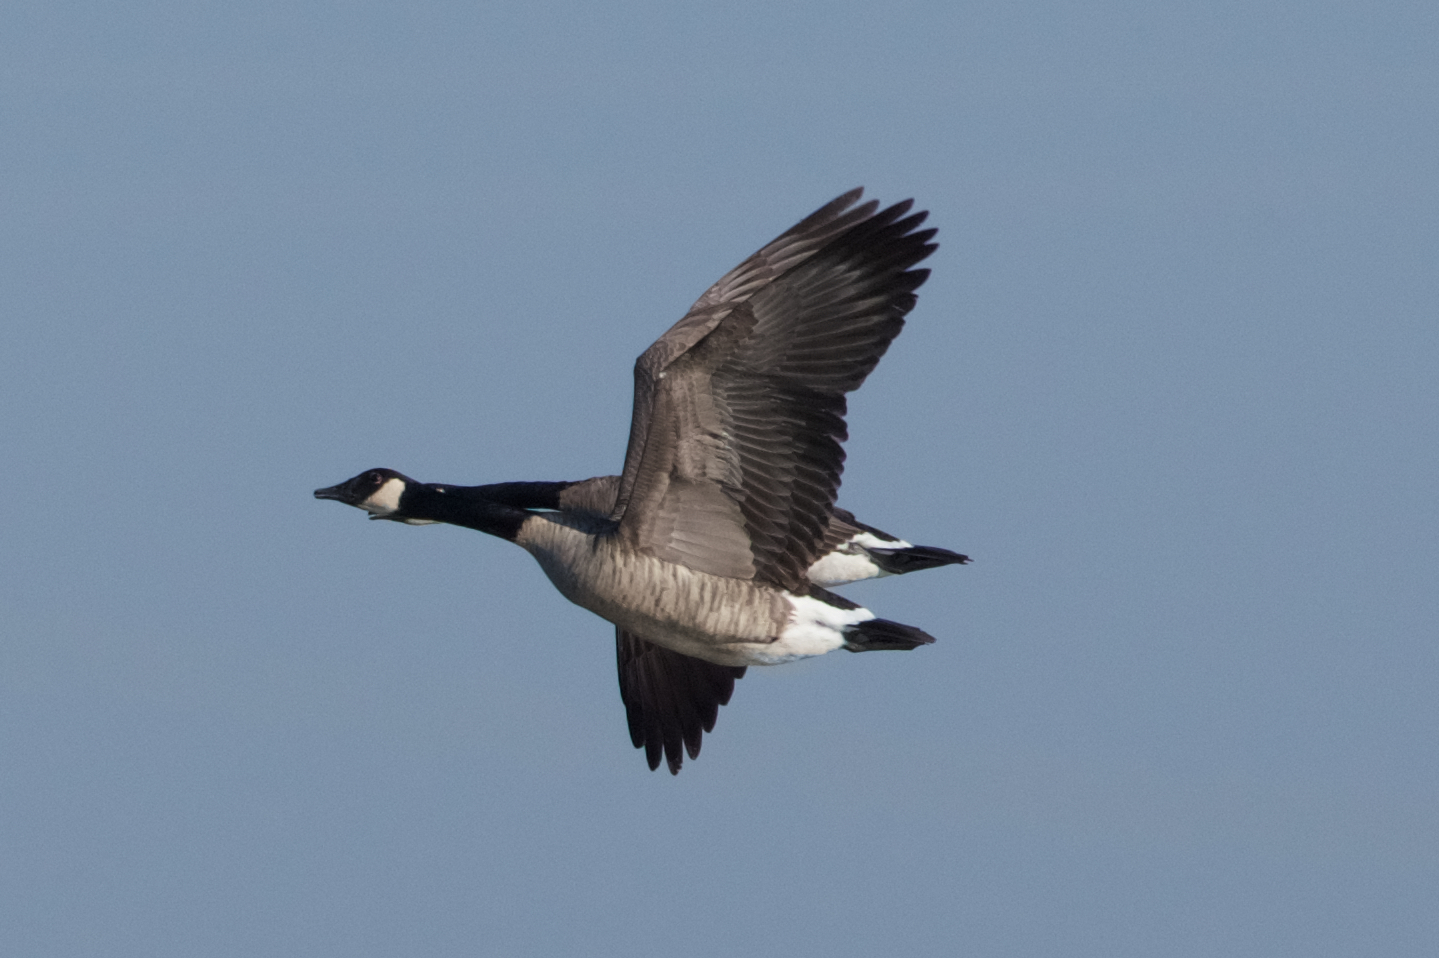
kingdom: Animalia
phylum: Chordata
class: Aves
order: Anseriformes
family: Anatidae
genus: Branta
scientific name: Branta canadensis
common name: Canada goose
